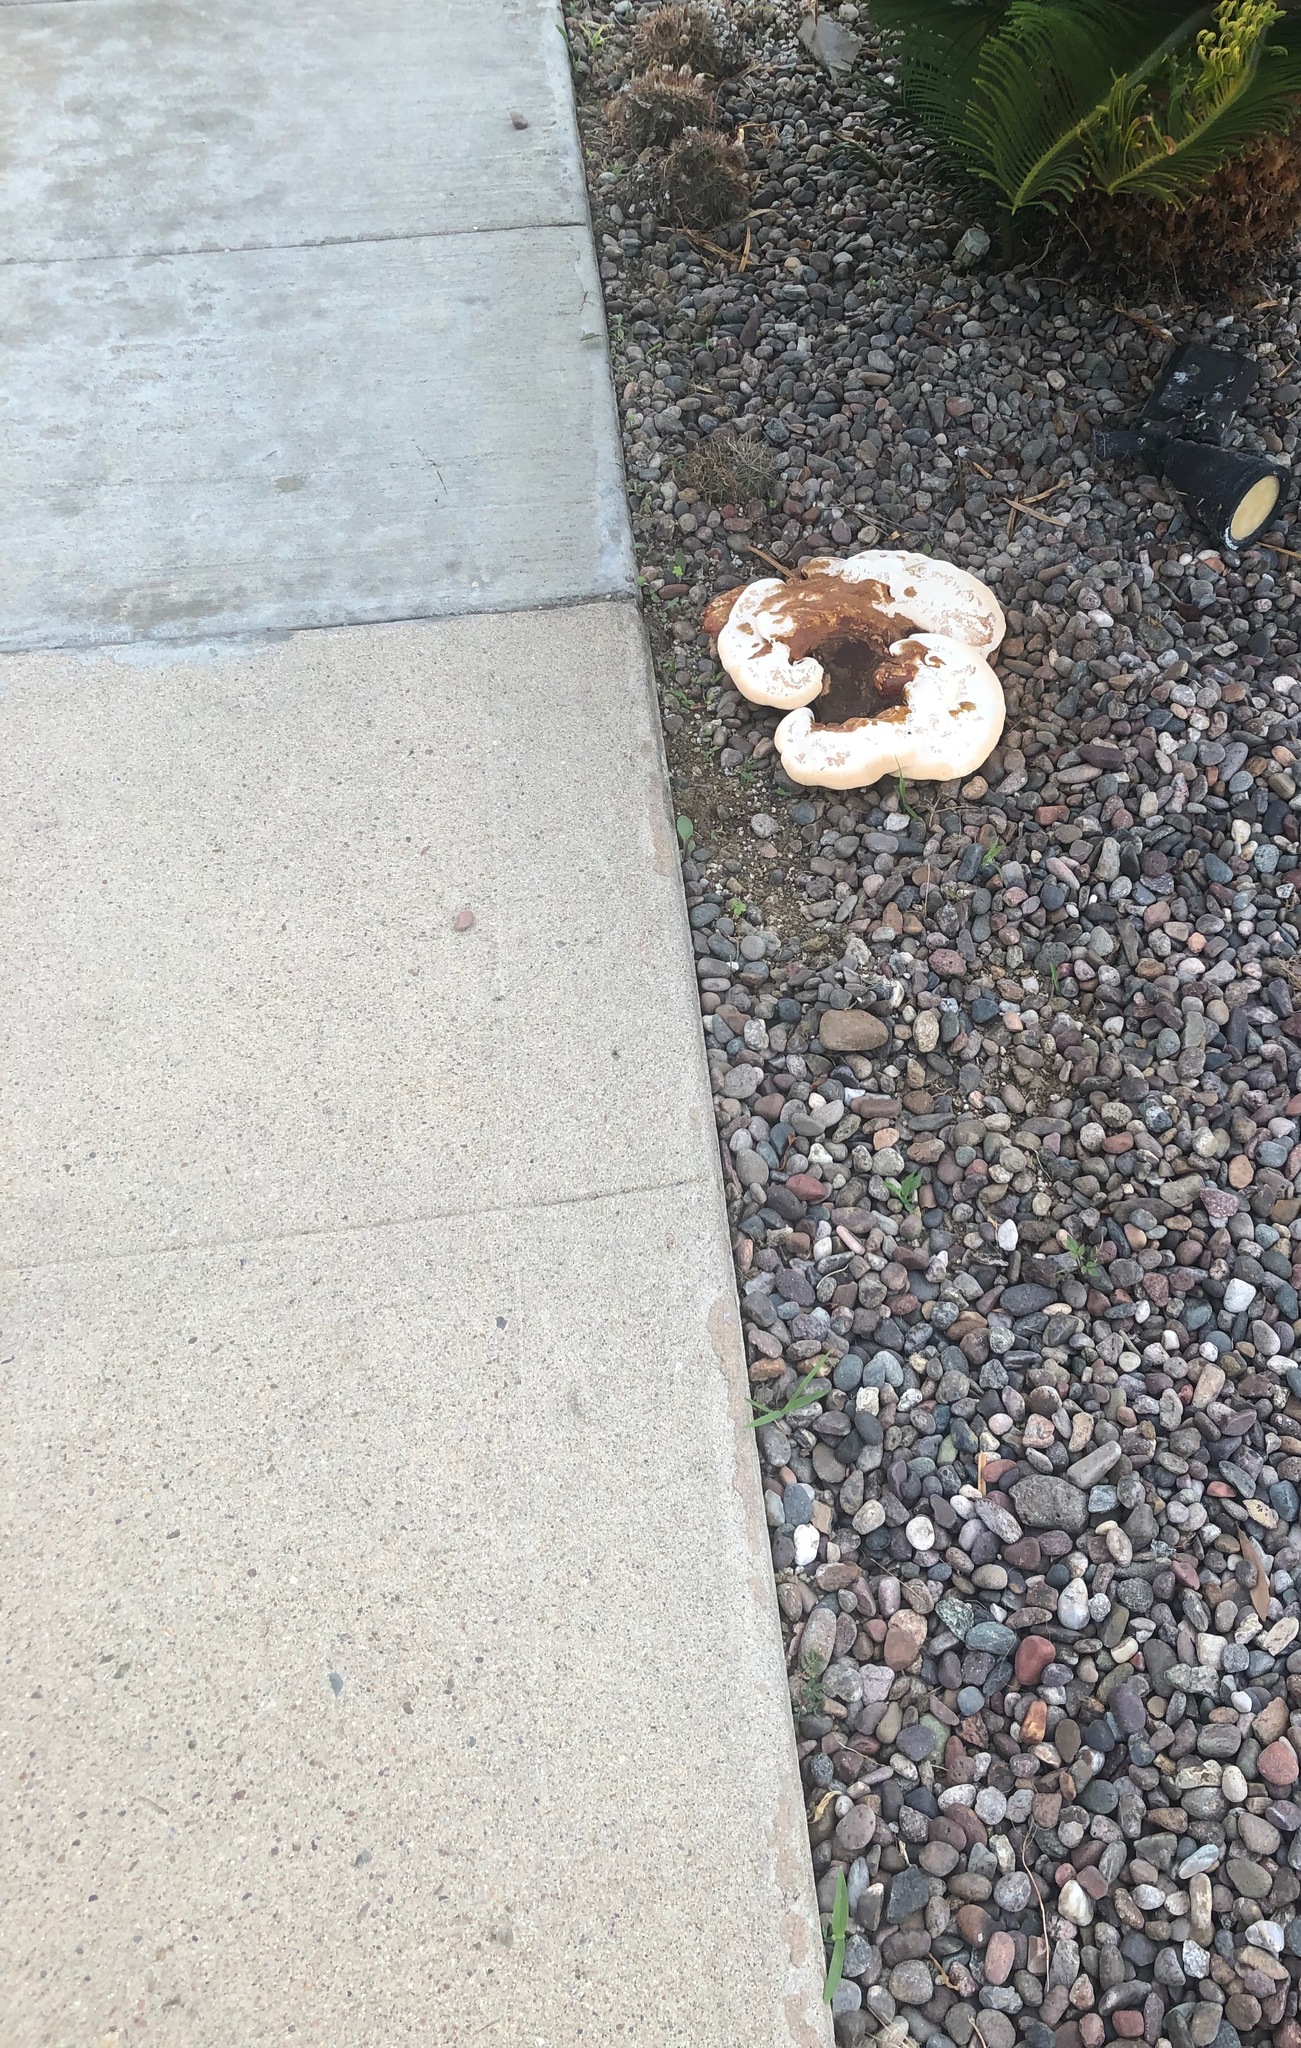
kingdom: Fungi
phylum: Basidiomycota
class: Agaricomycetes
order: Polyporales
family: Polyporaceae
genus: Ganoderma
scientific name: Ganoderma polychromum
